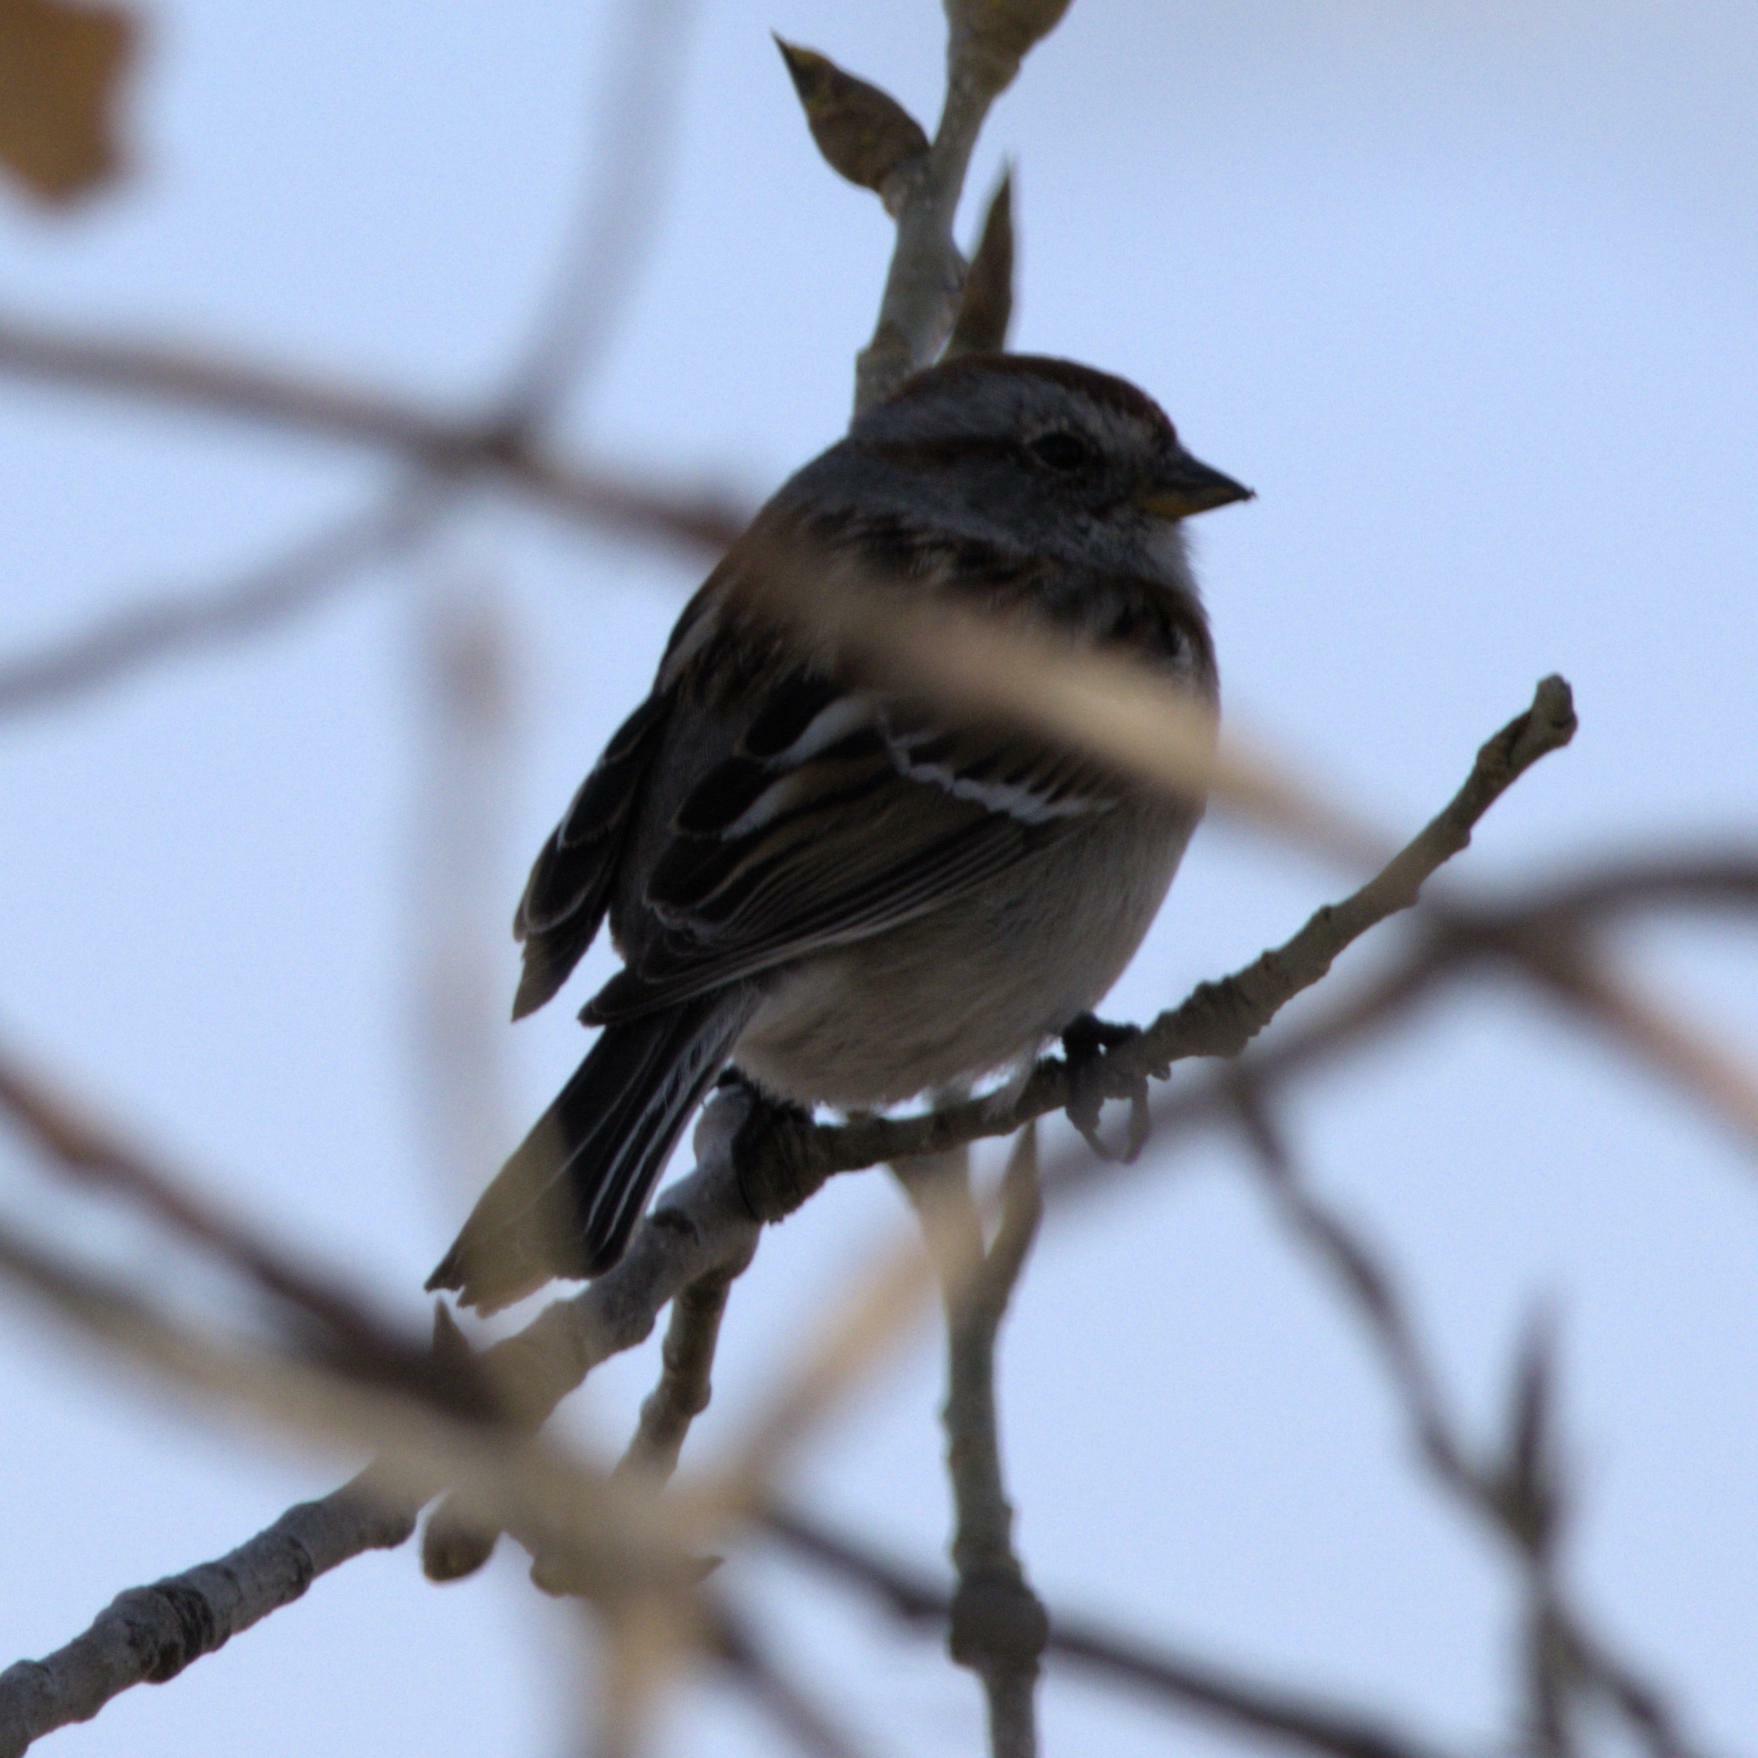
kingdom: Animalia
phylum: Chordata
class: Aves
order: Passeriformes
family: Passerellidae
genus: Spizelloides
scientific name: Spizelloides arborea
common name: American tree sparrow
